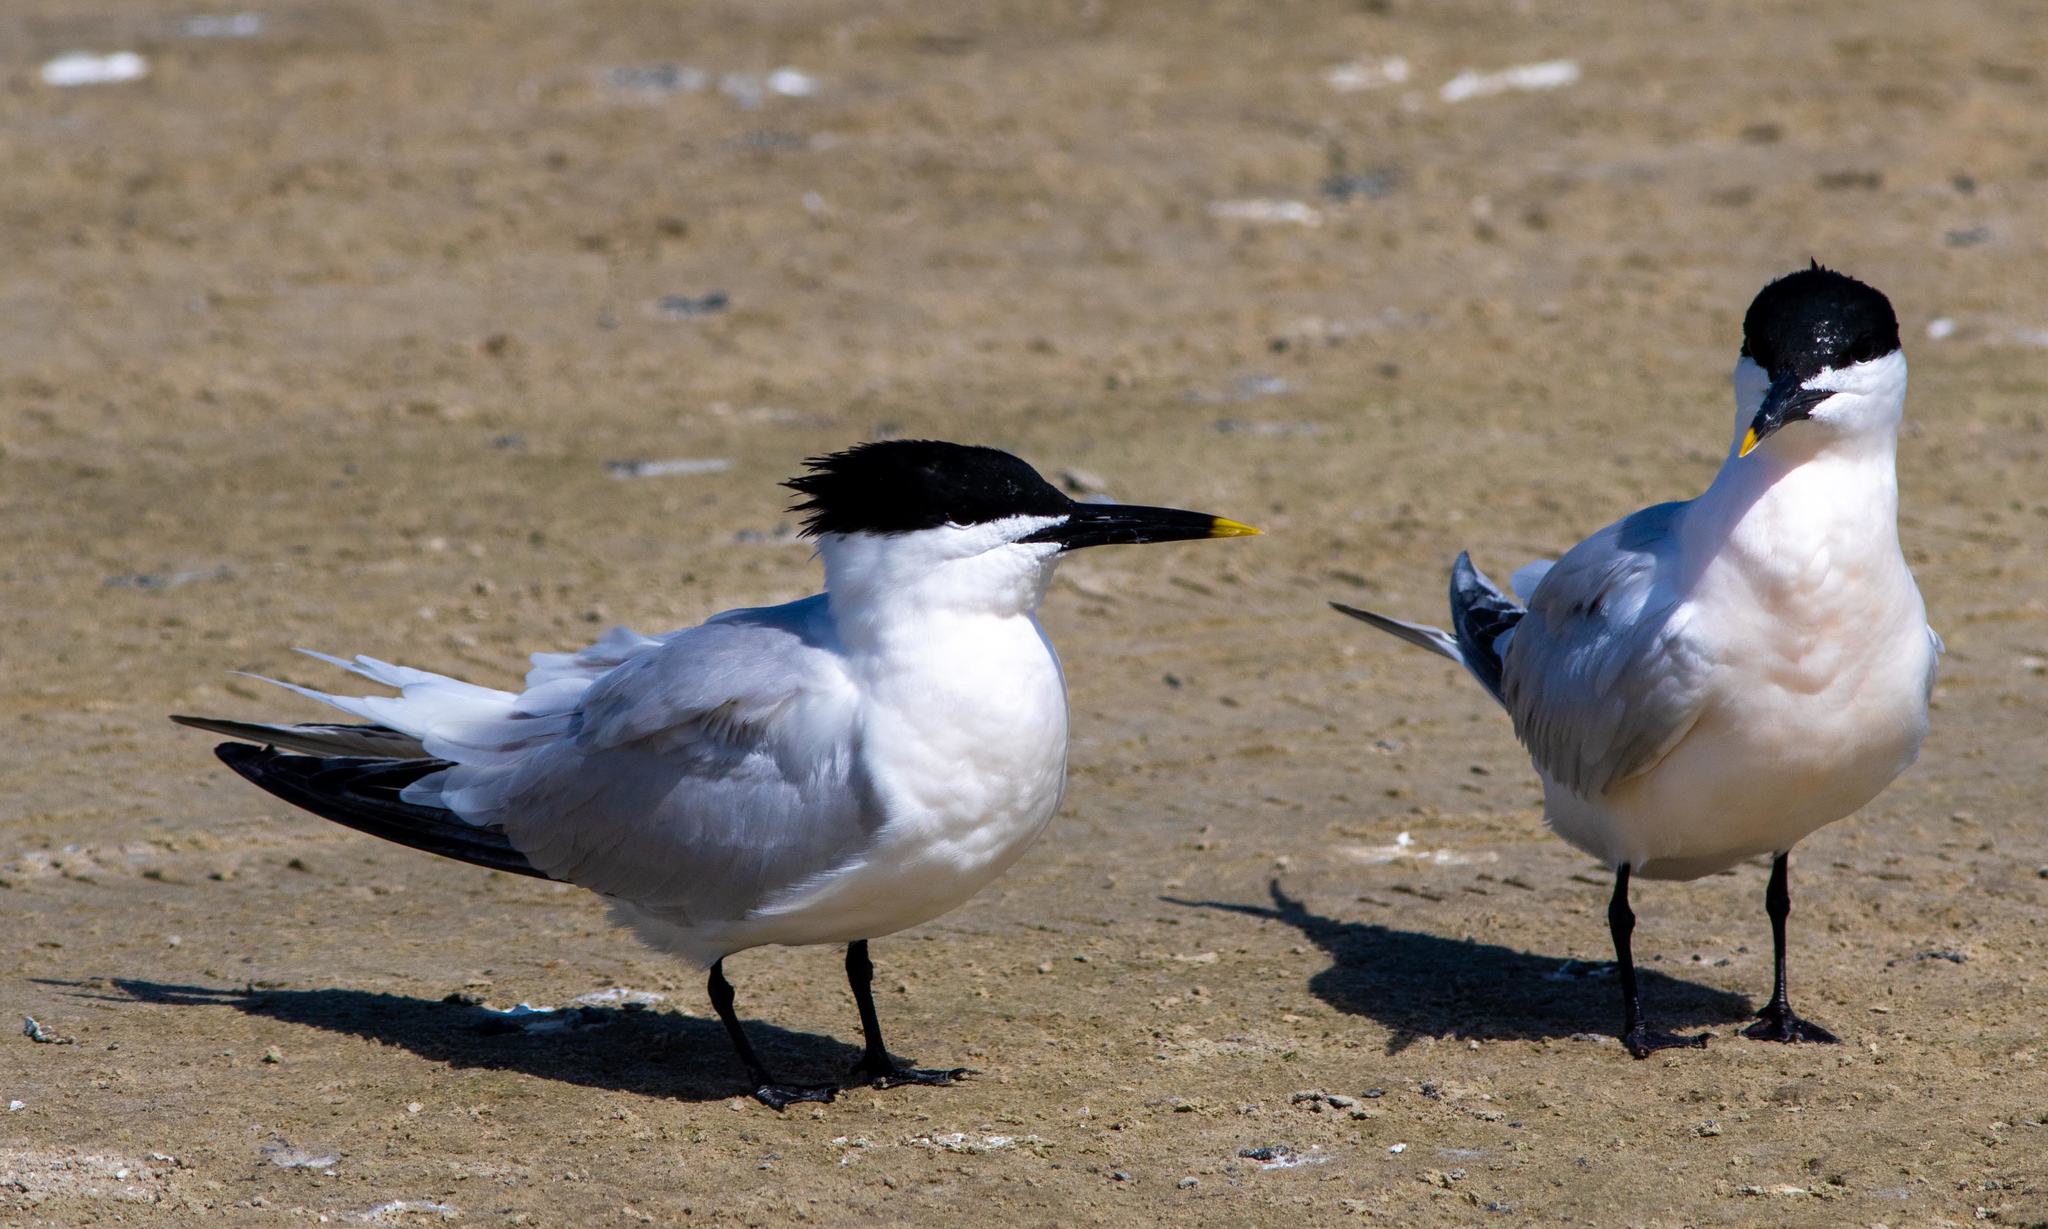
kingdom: Animalia
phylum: Chordata
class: Aves
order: Charadriiformes
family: Laridae
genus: Thalasseus
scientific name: Thalasseus sandvicensis
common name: Sandwich tern
